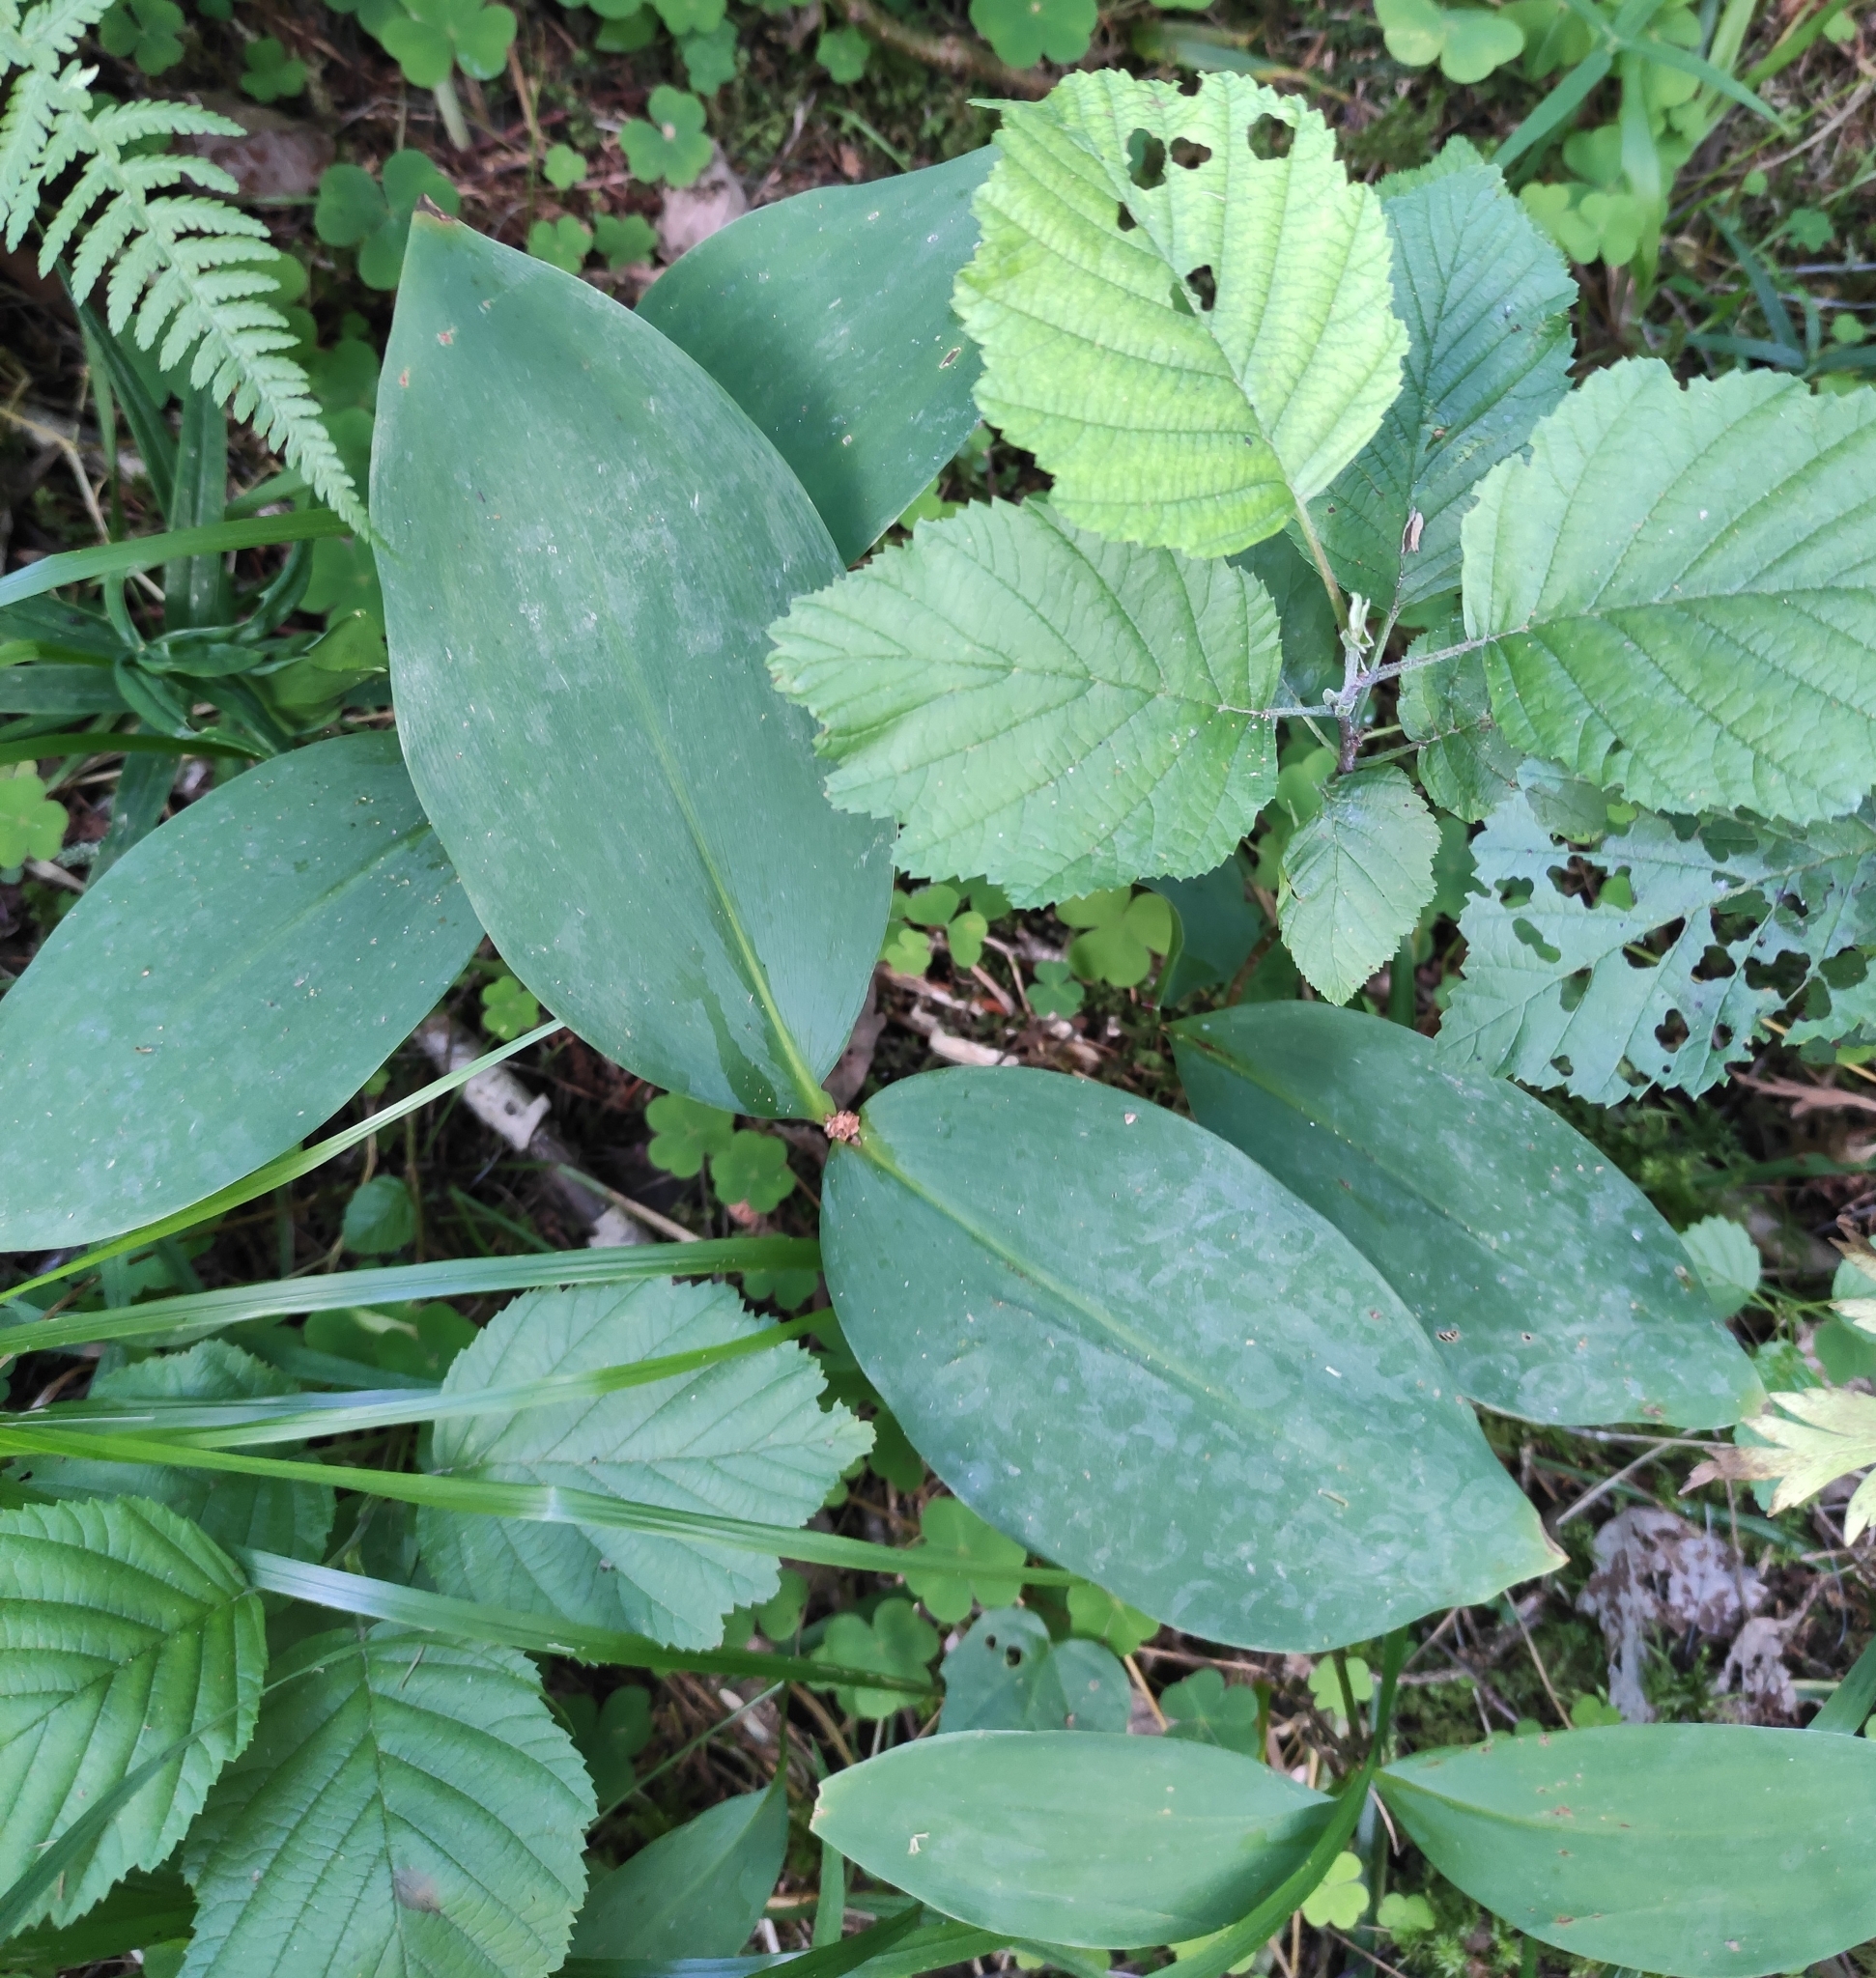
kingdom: Plantae
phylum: Tracheophyta
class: Liliopsida
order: Asparagales
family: Asparagaceae
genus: Convallaria
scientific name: Convallaria majalis
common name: Lily-of-the-valley
